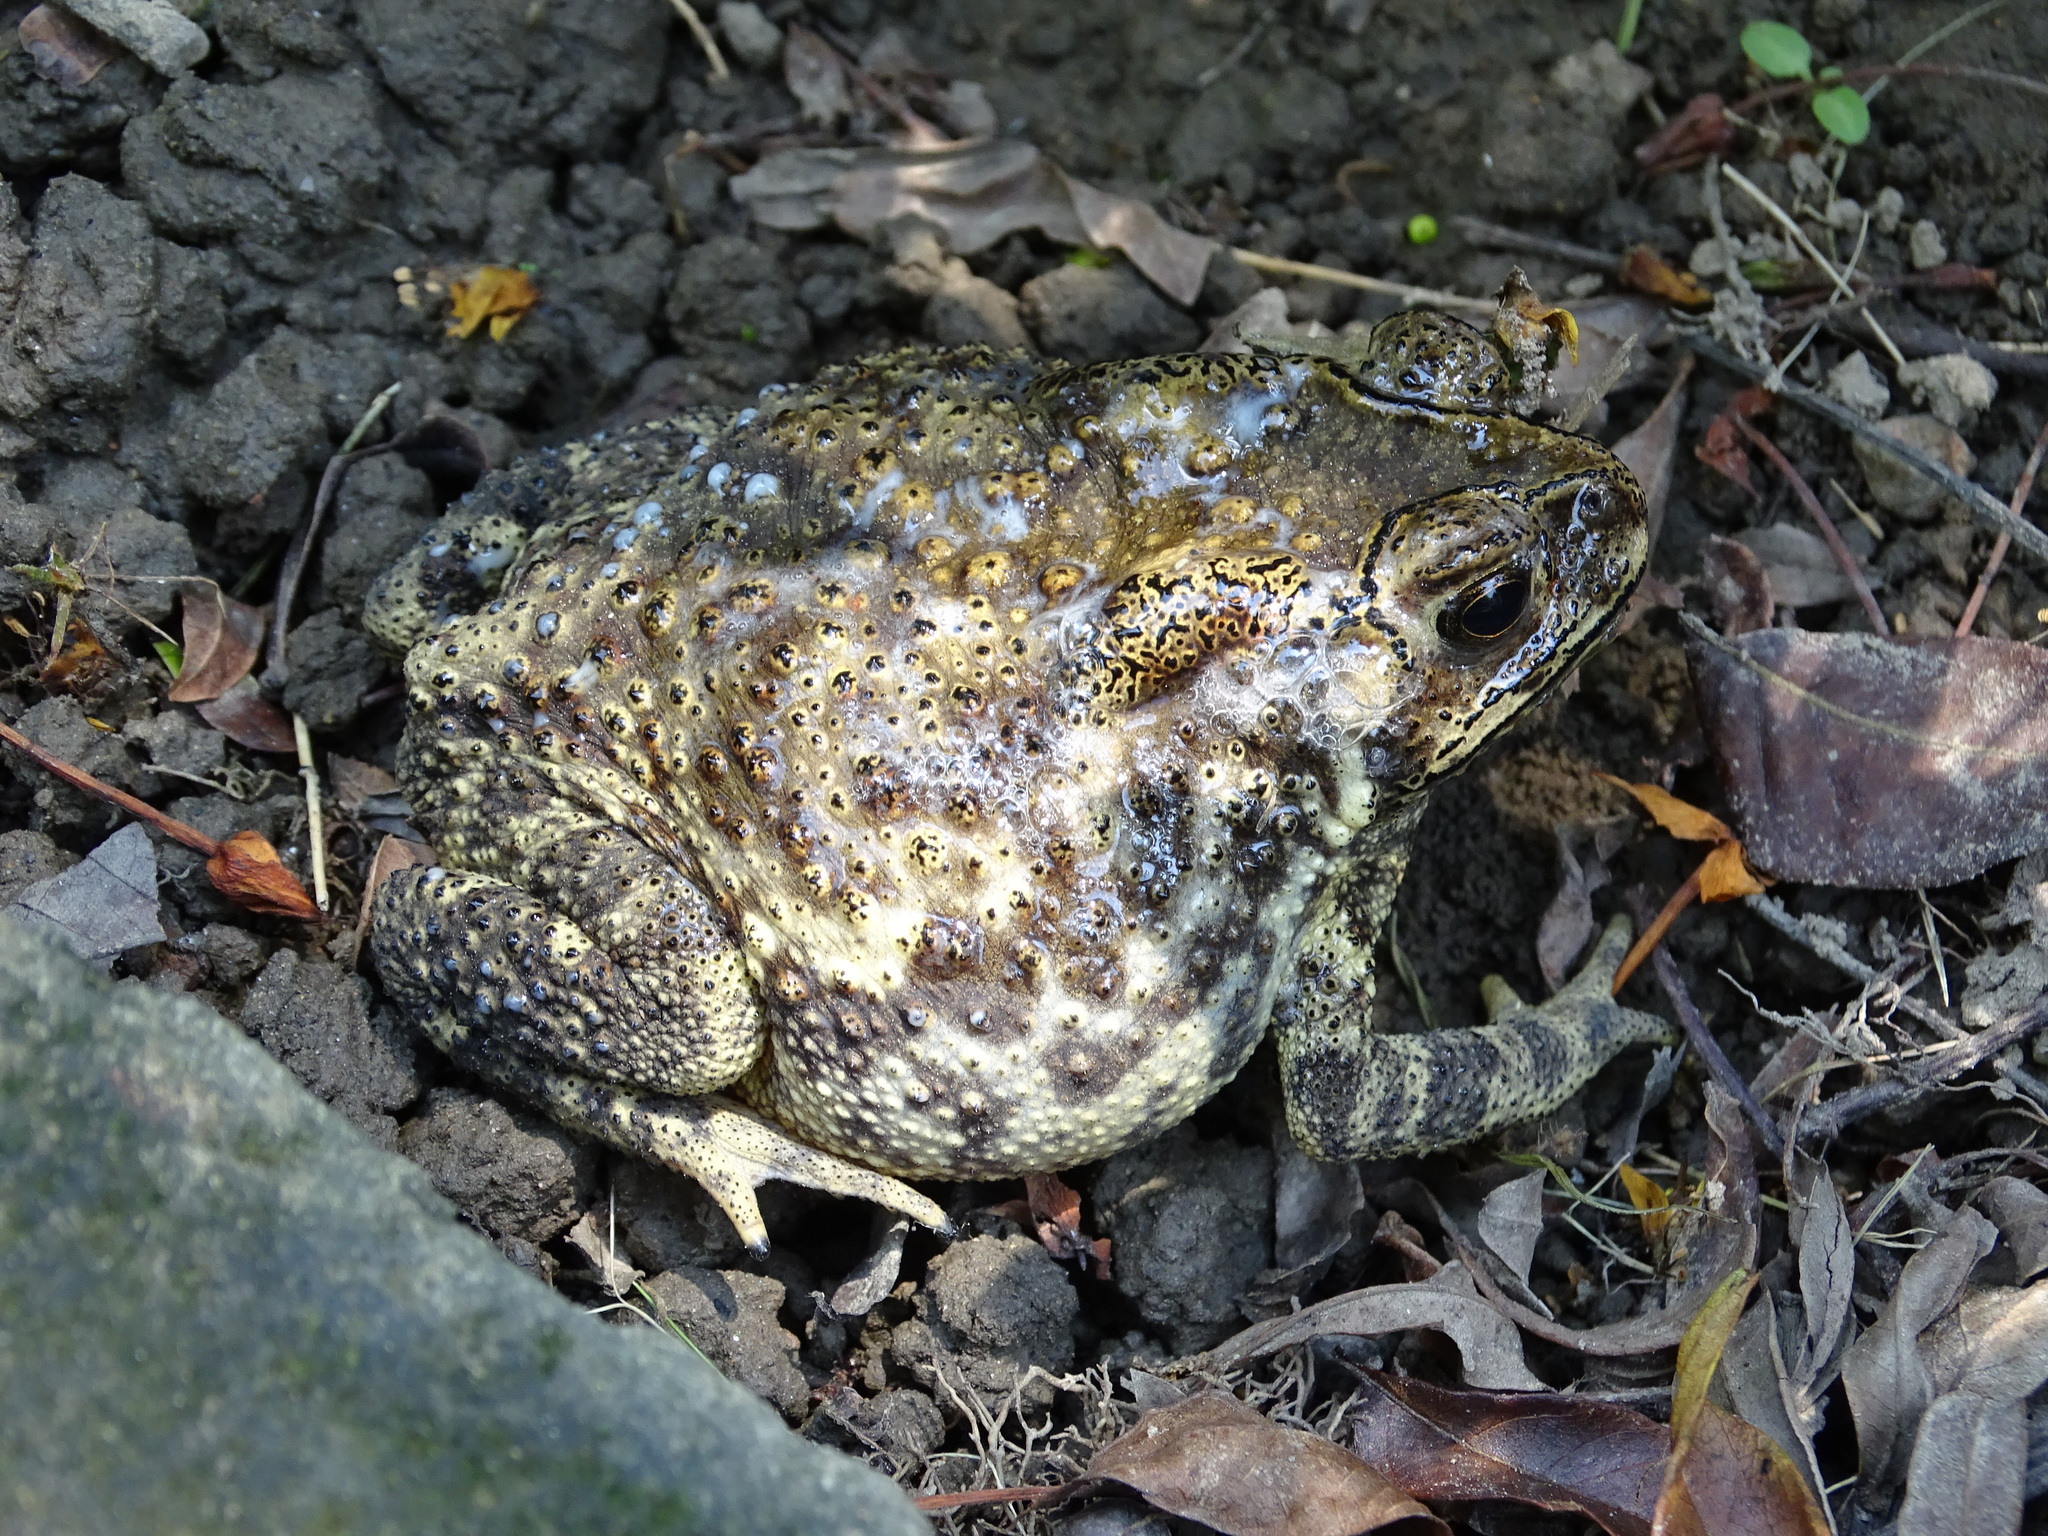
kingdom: Animalia
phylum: Chordata
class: Amphibia
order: Anura
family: Bufonidae
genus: Duttaphrynus
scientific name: Duttaphrynus melanostictus
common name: Common sunda toad
